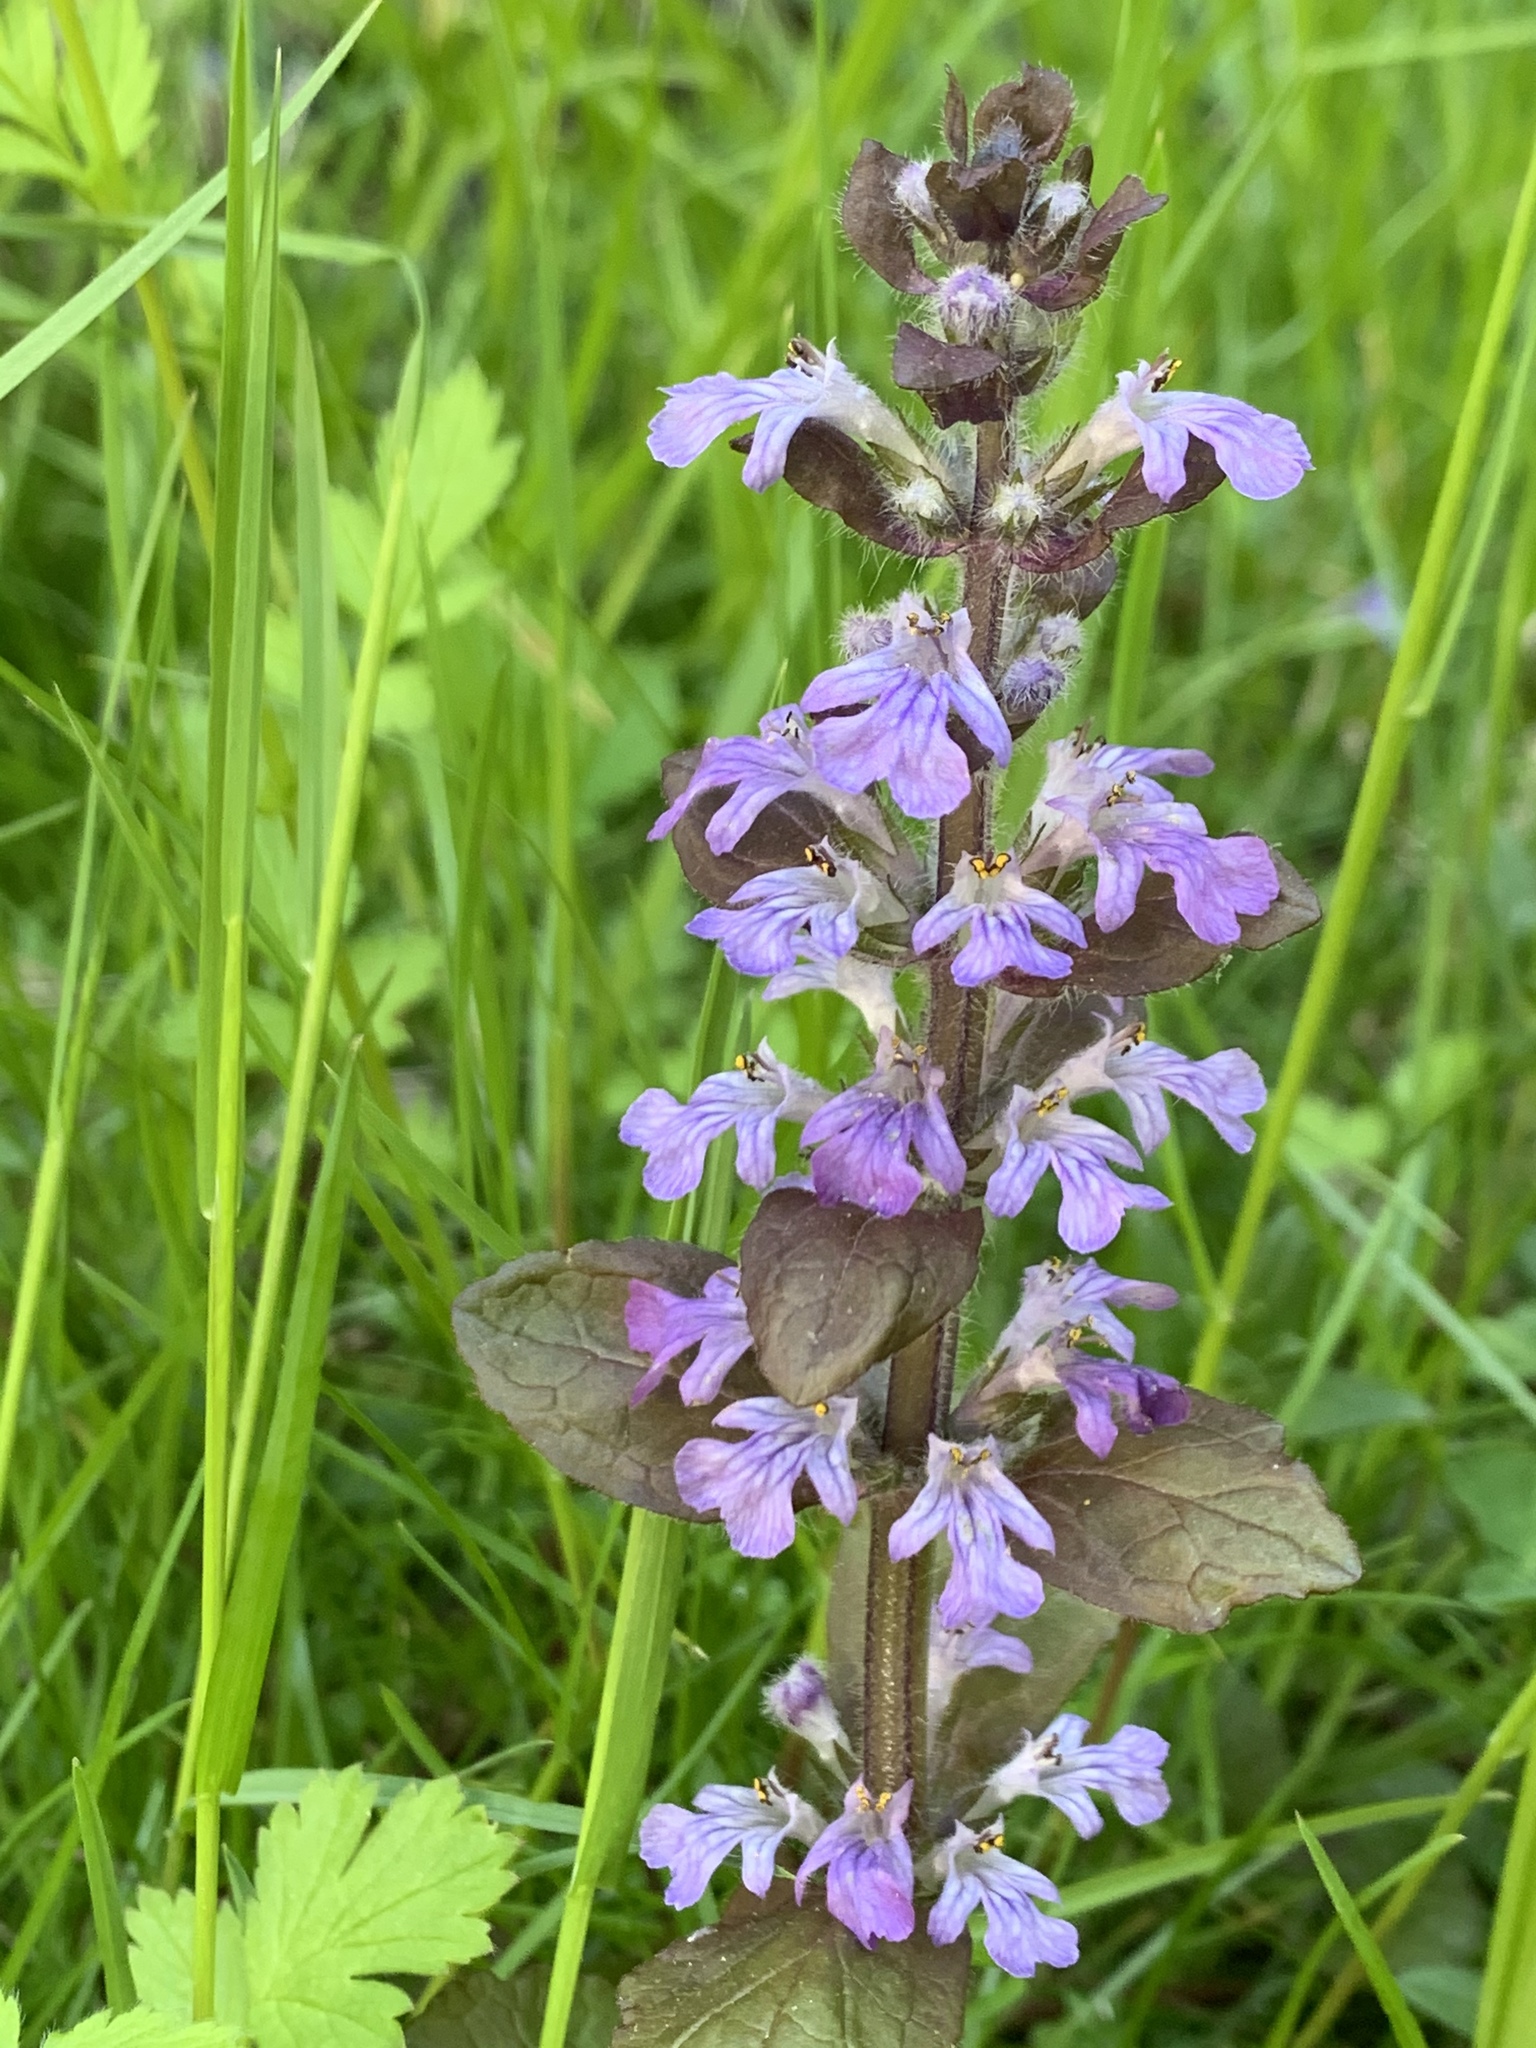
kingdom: Plantae
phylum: Tracheophyta
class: Magnoliopsida
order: Lamiales
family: Lamiaceae
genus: Ajuga
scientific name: Ajuga reptans
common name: Bugle
